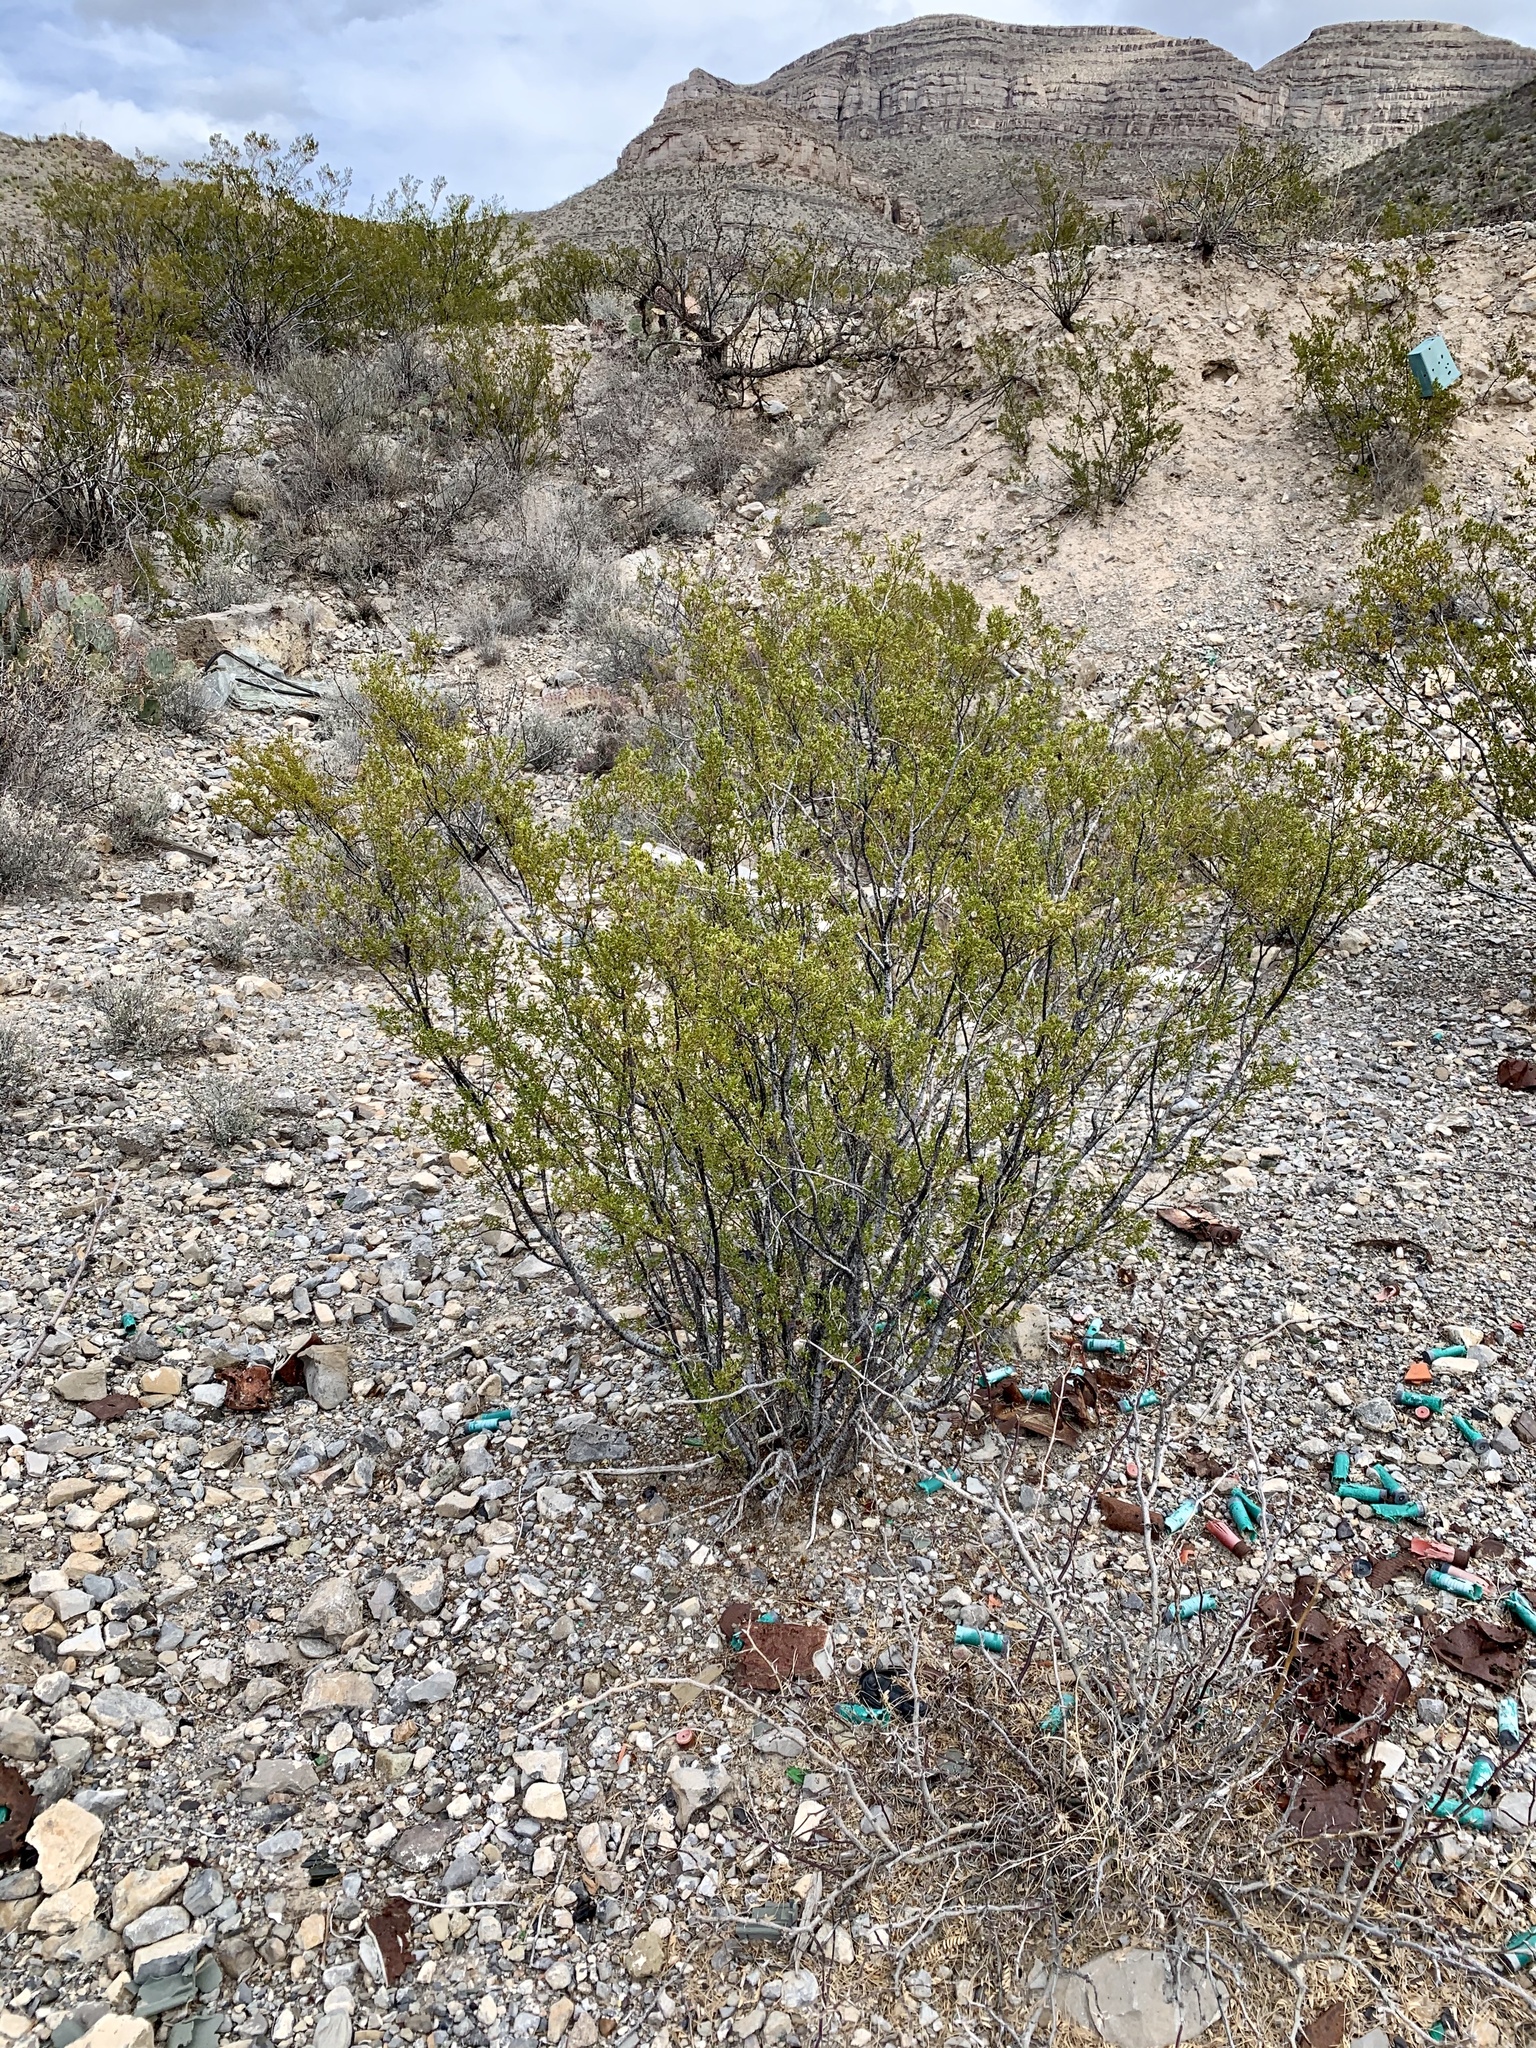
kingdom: Plantae
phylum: Tracheophyta
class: Magnoliopsida
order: Zygophyllales
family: Zygophyllaceae
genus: Larrea
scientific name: Larrea tridentata
